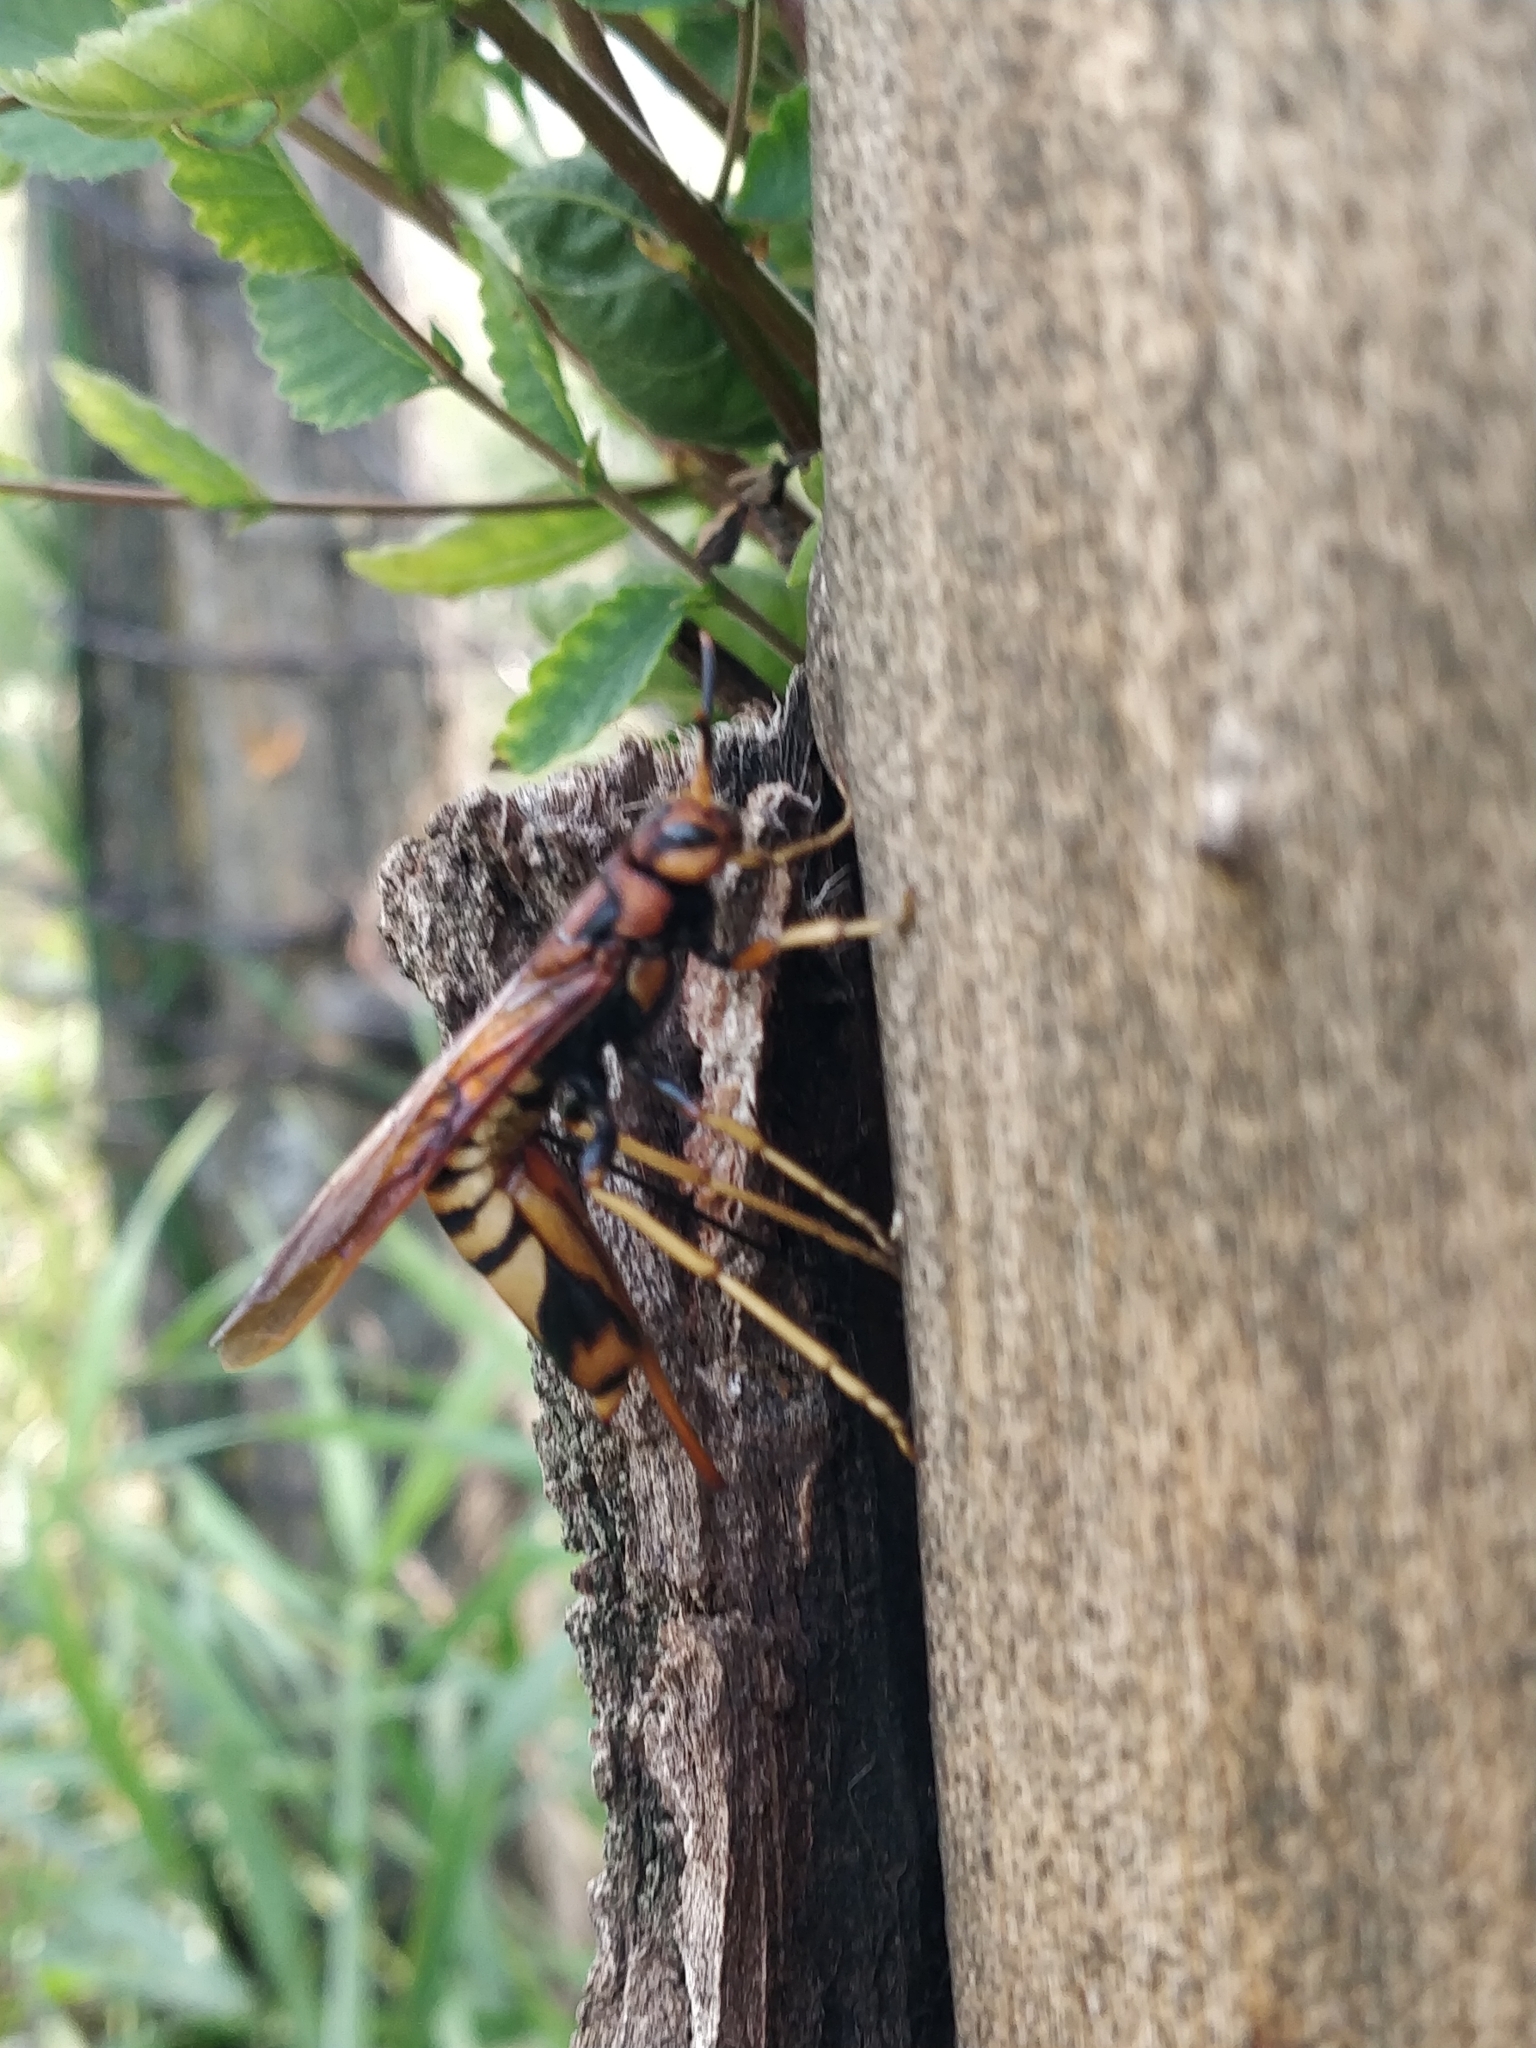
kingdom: Animalia
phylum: Arthropoda
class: Insecta
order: Hymenoptera
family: Siricidae
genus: Tremex
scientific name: Tremex columba
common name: Wasp
